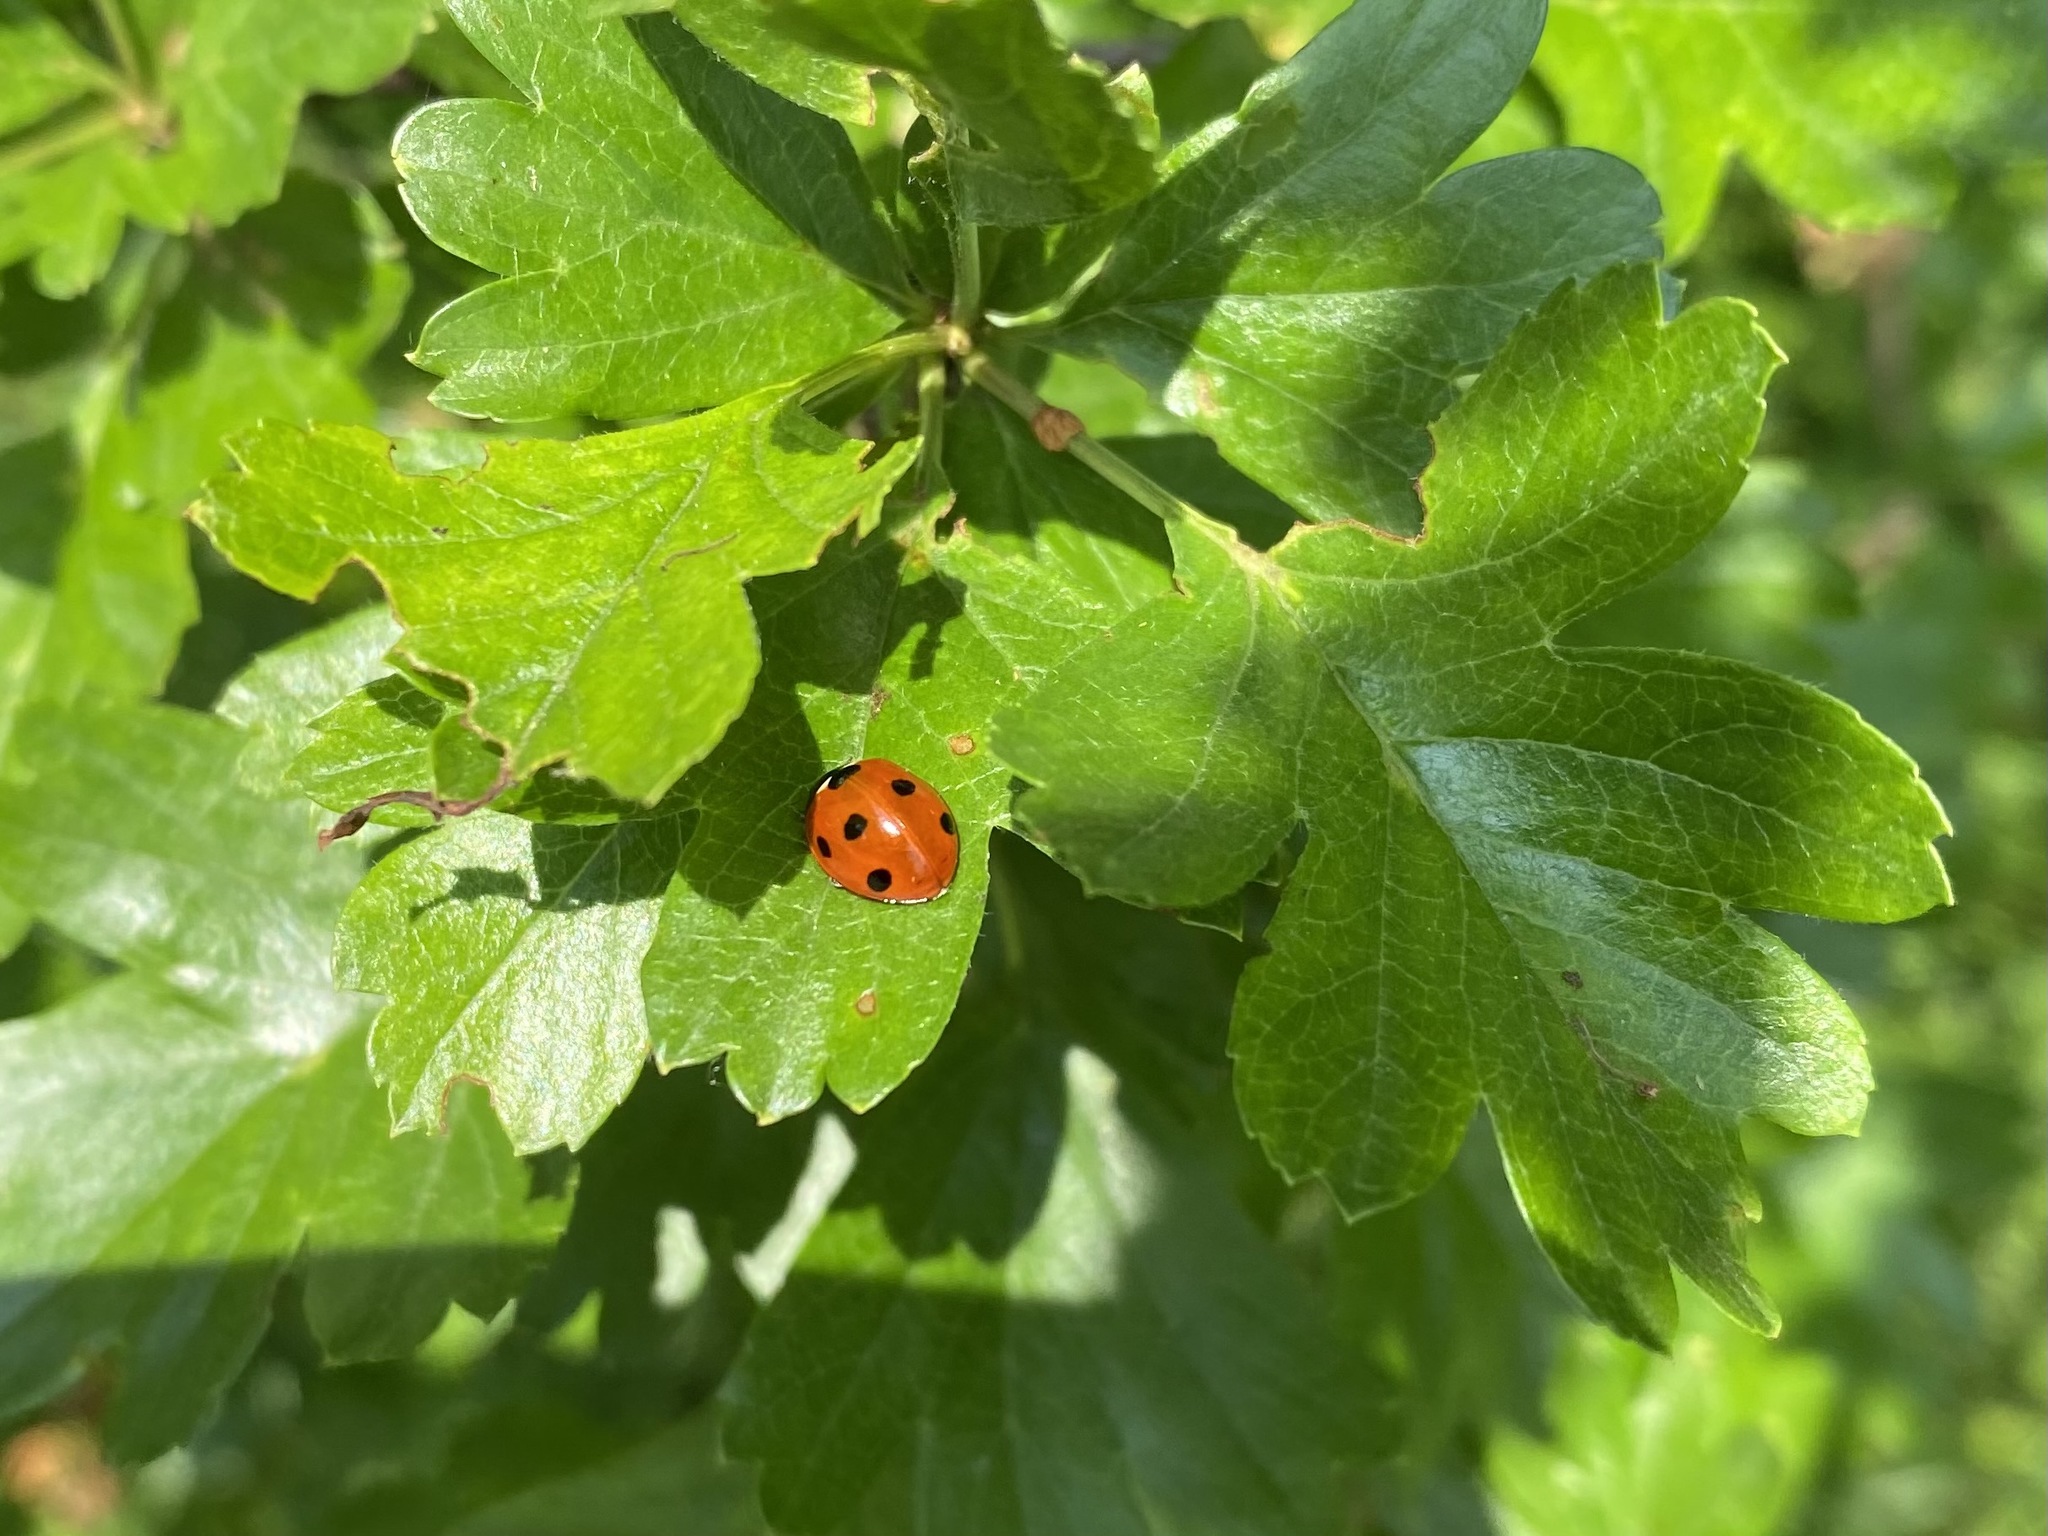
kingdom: Animalia
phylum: Arthropoda
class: Insecta
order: Coleoptera
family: Coccinellidae
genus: Coccinella
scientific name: Coccinella septempunctata
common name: Sevenspotted lady beetle
